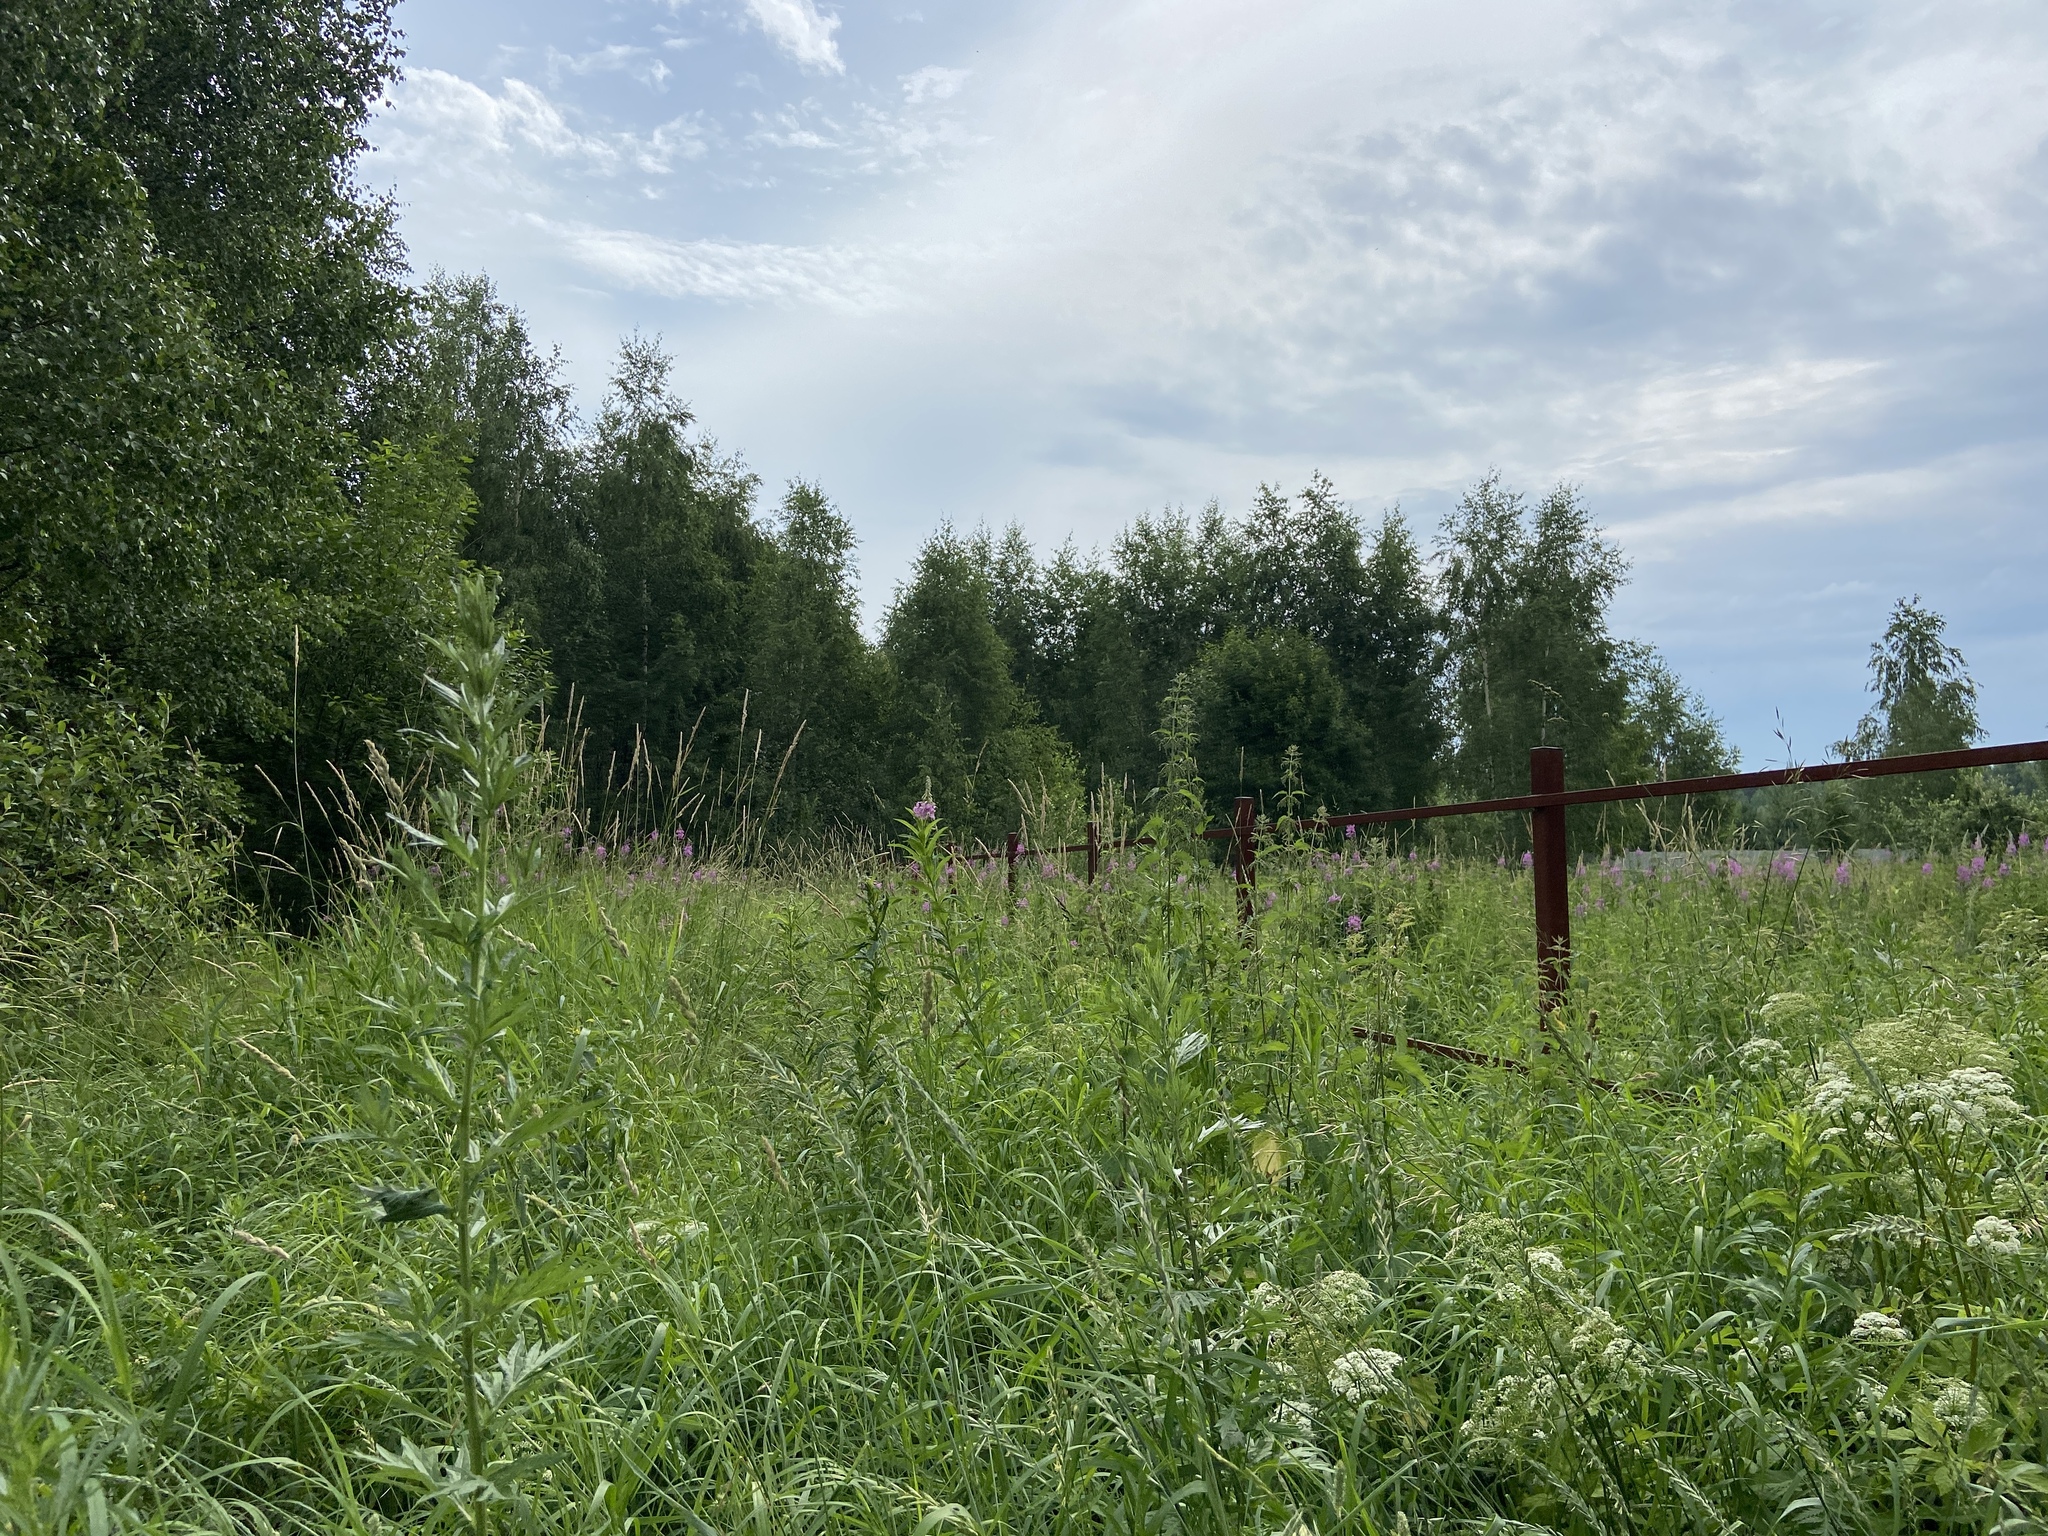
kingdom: Plantae
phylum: Tracheophyta
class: Magnoliopsida
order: Asterales
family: Asteraceae
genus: Artemisia
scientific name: Artemisia vulgaris
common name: Mugwort
